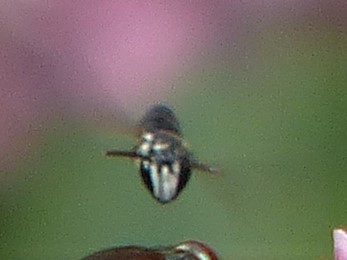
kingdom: Animalia
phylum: Arthropoda
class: Insecta
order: Hymenoptera
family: Colletidae
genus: Hylaeus
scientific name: Hylaeus leptocephalus
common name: Slender-faced masked bee
